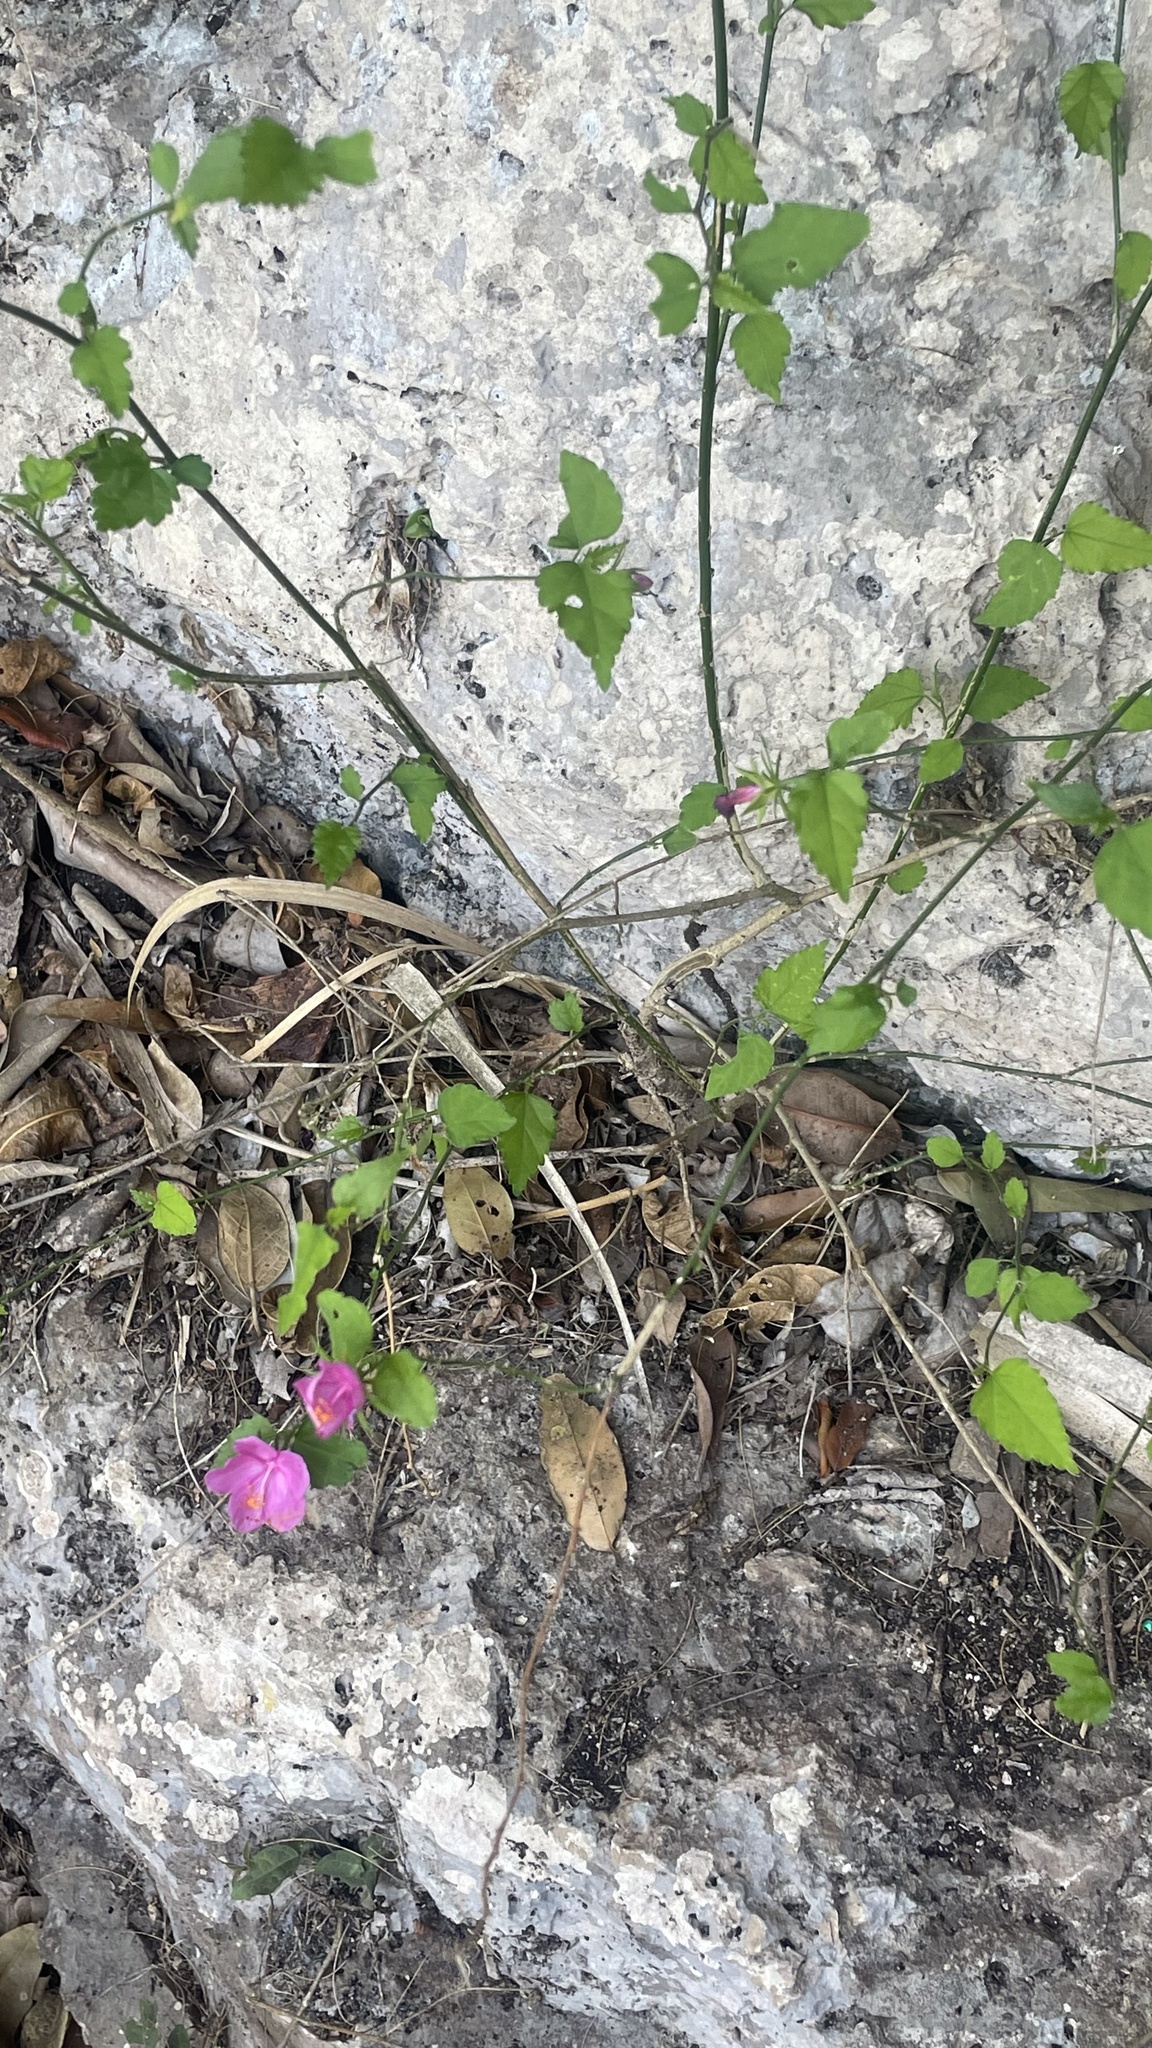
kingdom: Plantae
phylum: Tracheophyta
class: Magnoliopsida
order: Malvales
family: Malvaceae
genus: Hibiscus
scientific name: Hibiscus phoeniceus
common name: Brazilian rosemallow
